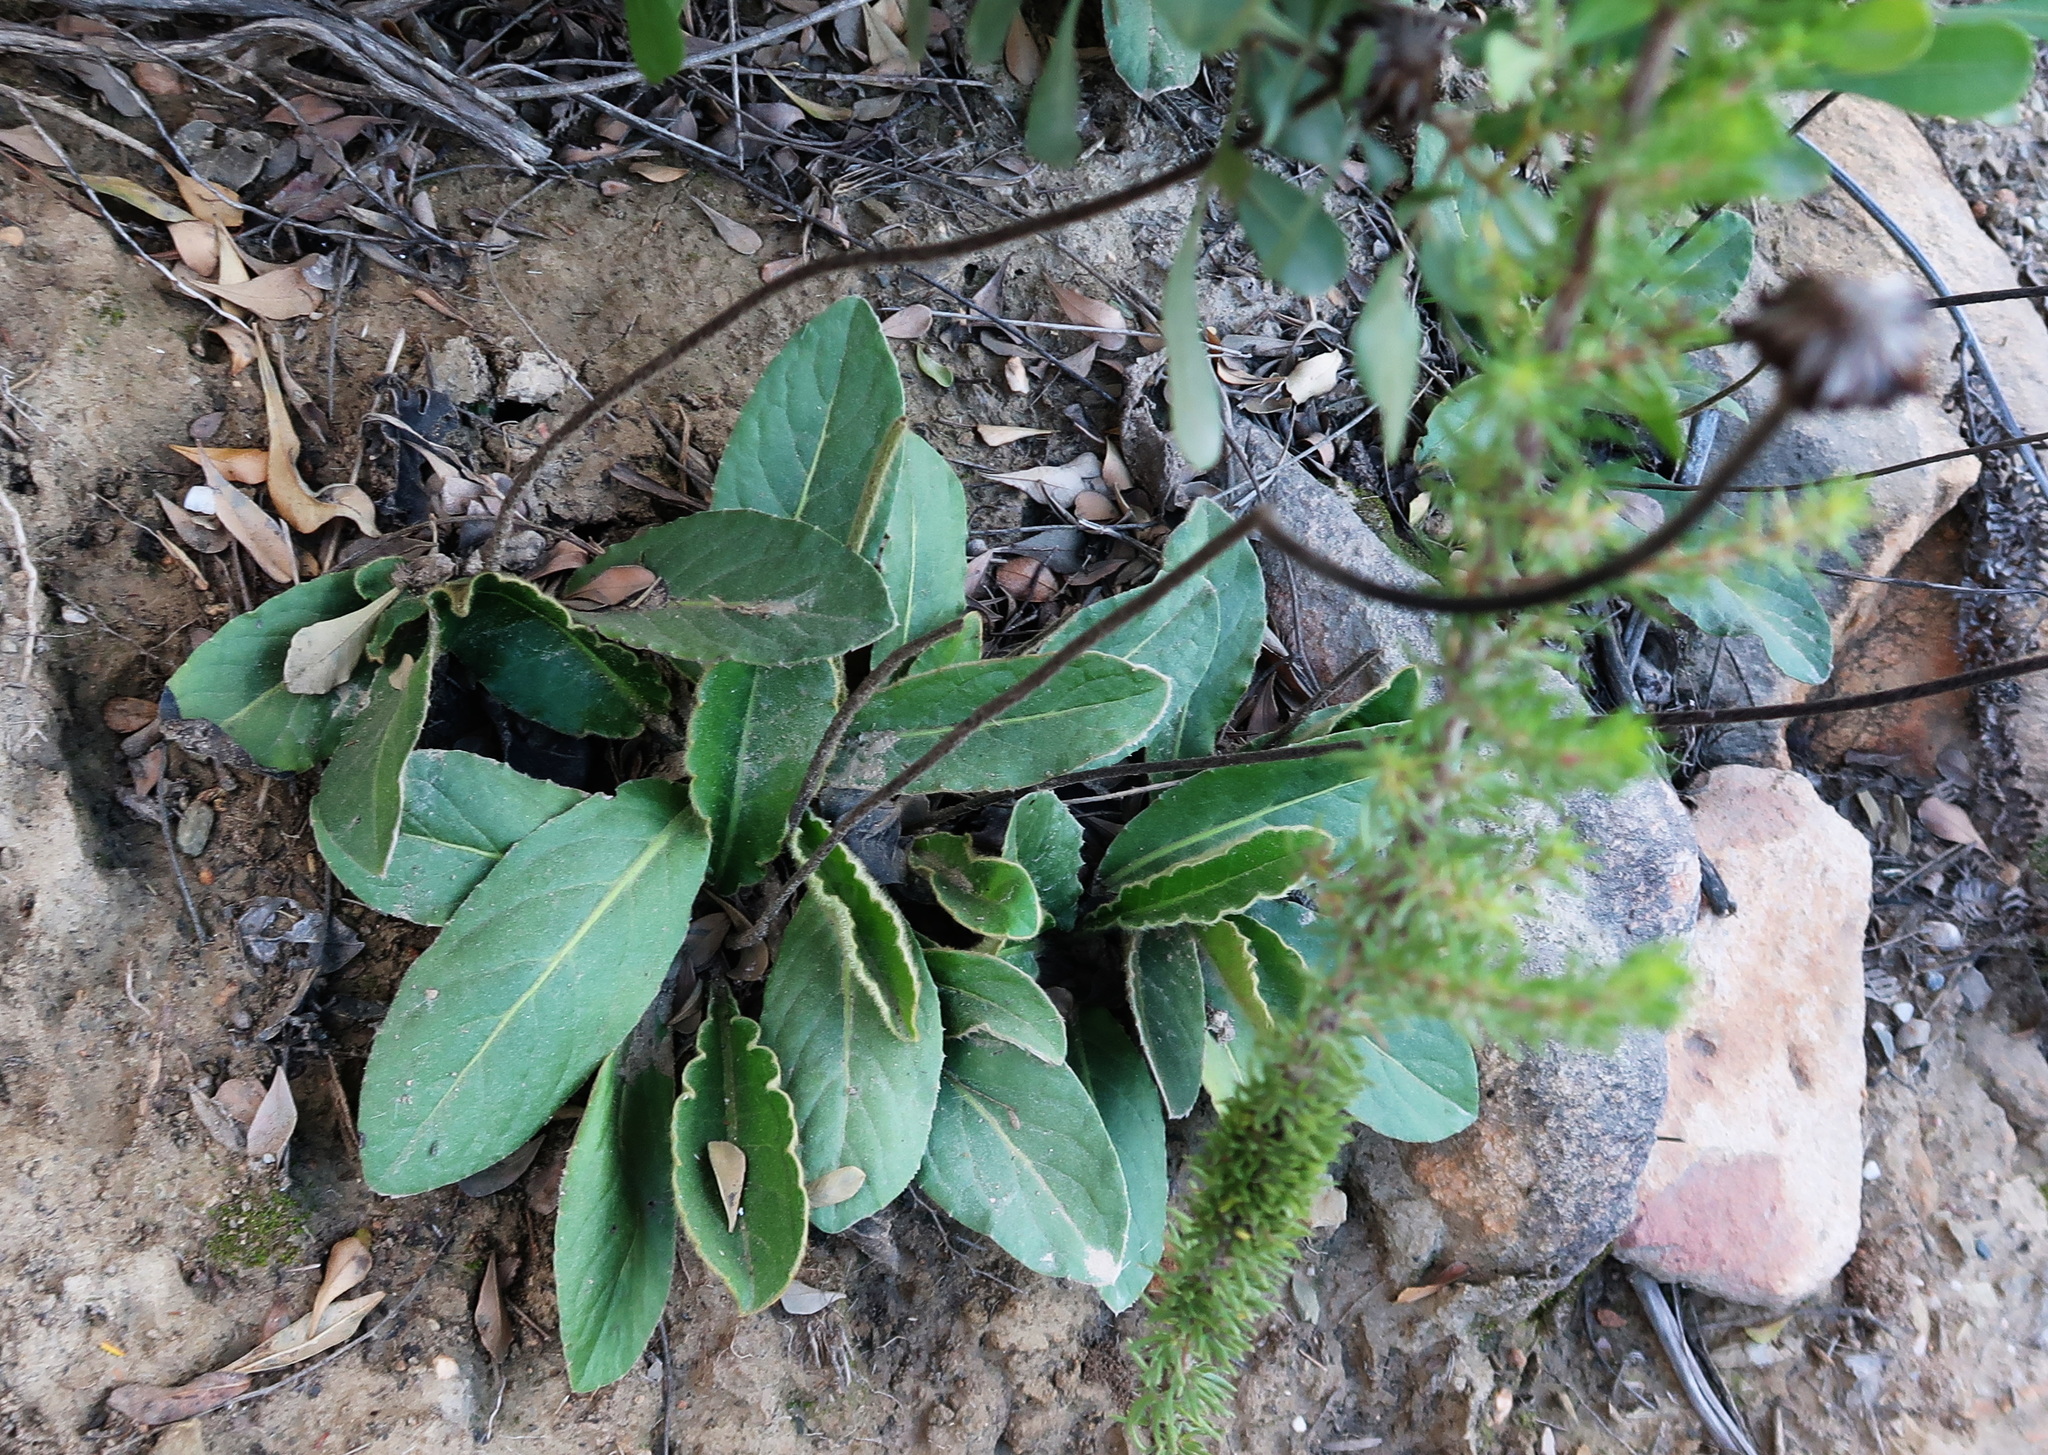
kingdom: Plantae
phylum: Tracheophyta
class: Magnoliopsida
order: Asterales
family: Asteraceae
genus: Piloselloides
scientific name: Piloselloides hirsuta
